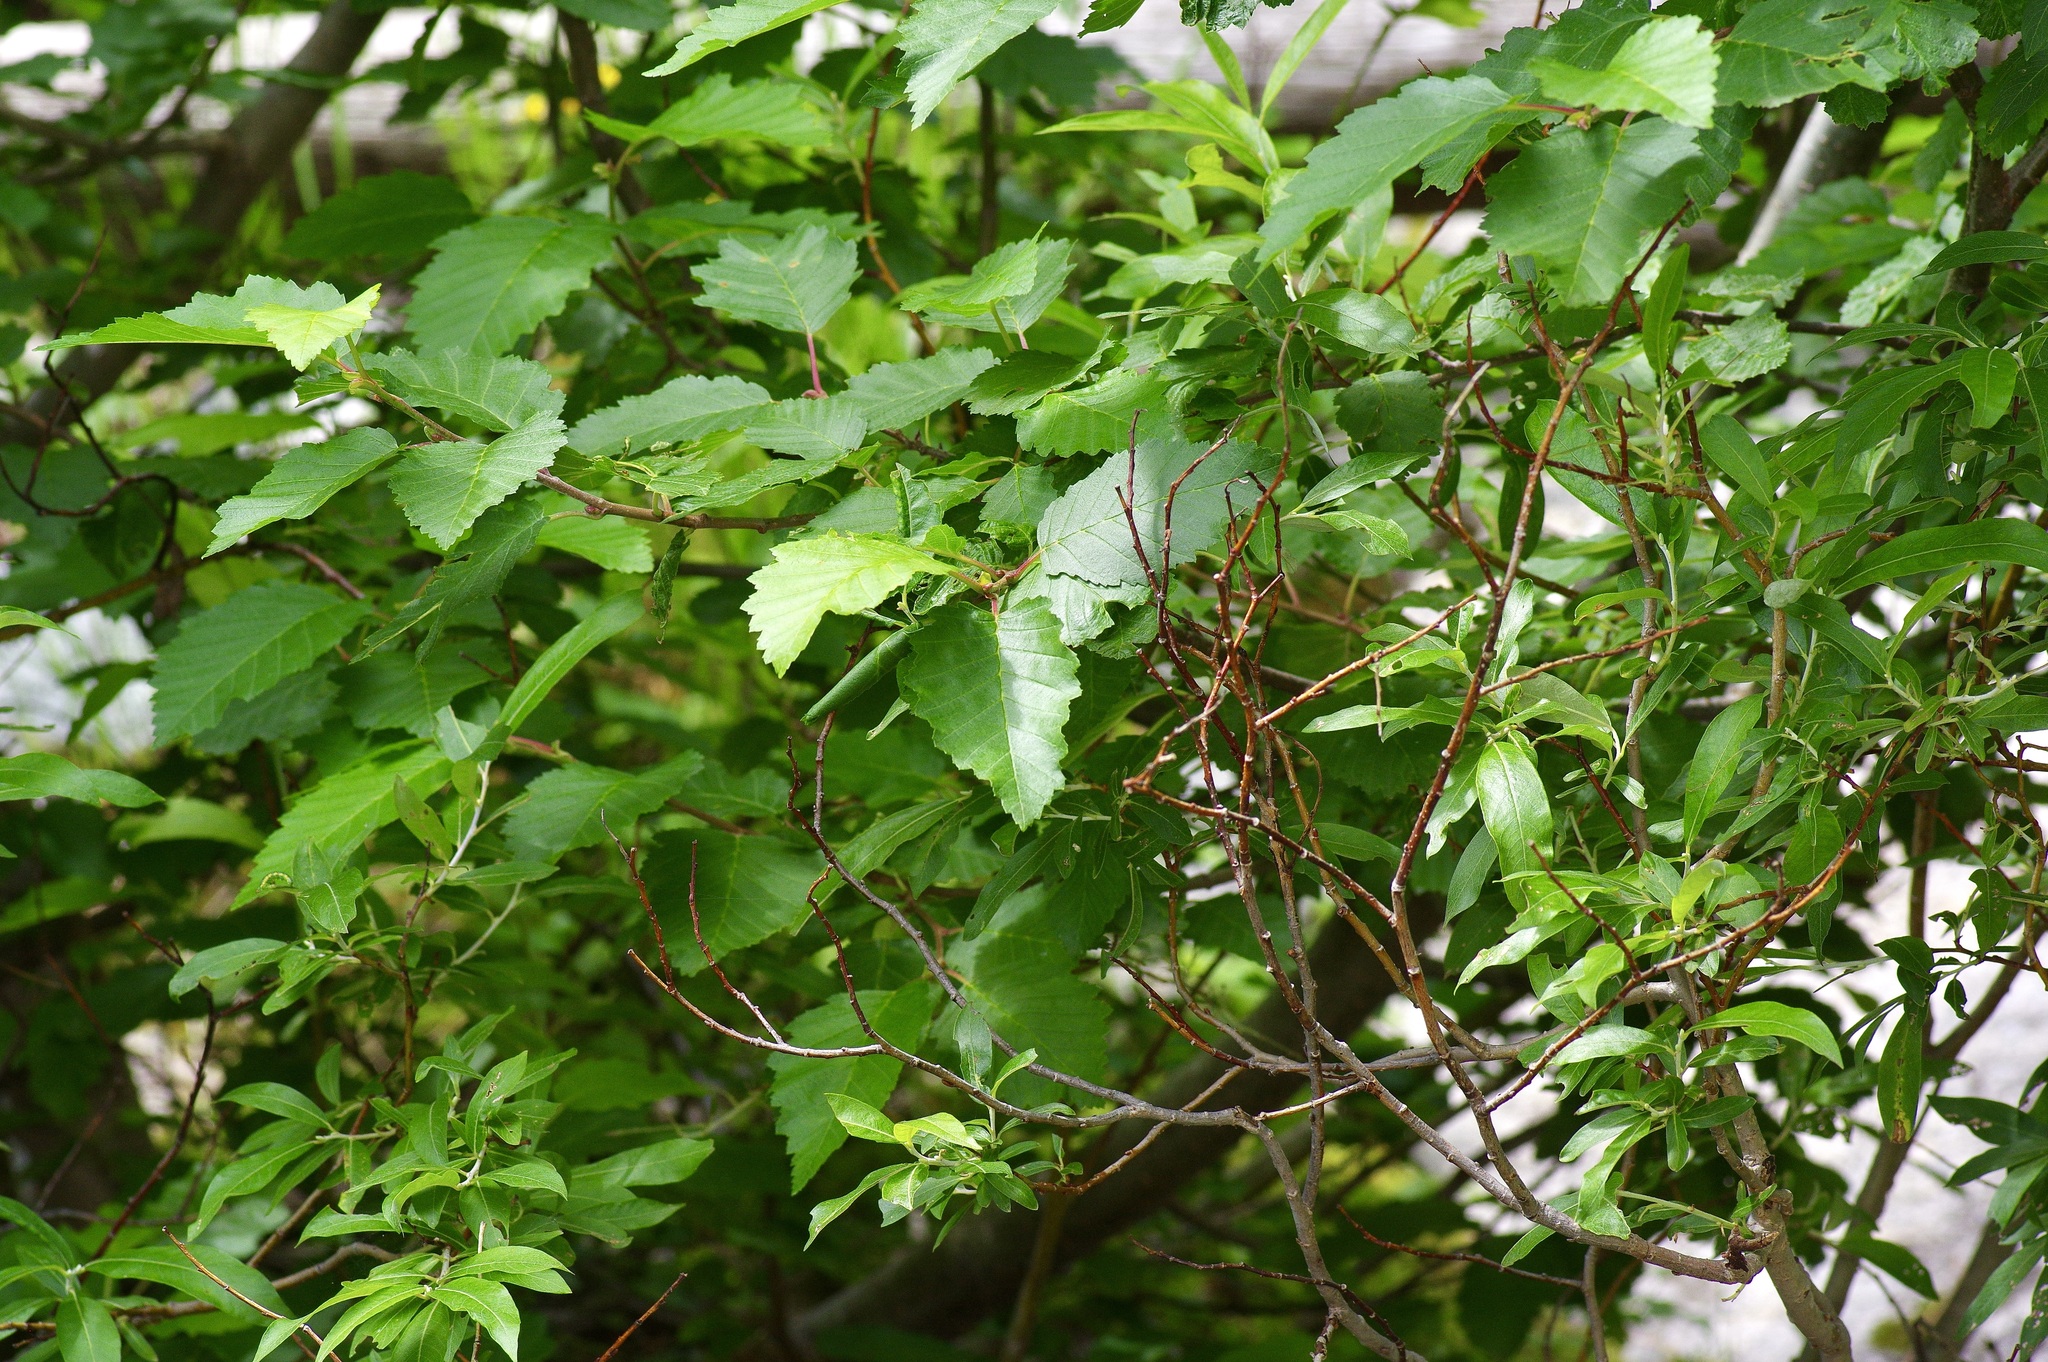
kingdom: Plantae
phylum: Tracheophyta
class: Magnoliopsida
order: Fagales
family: Betulaceae
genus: Alnus
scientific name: Alnus incana
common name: Grey alder
